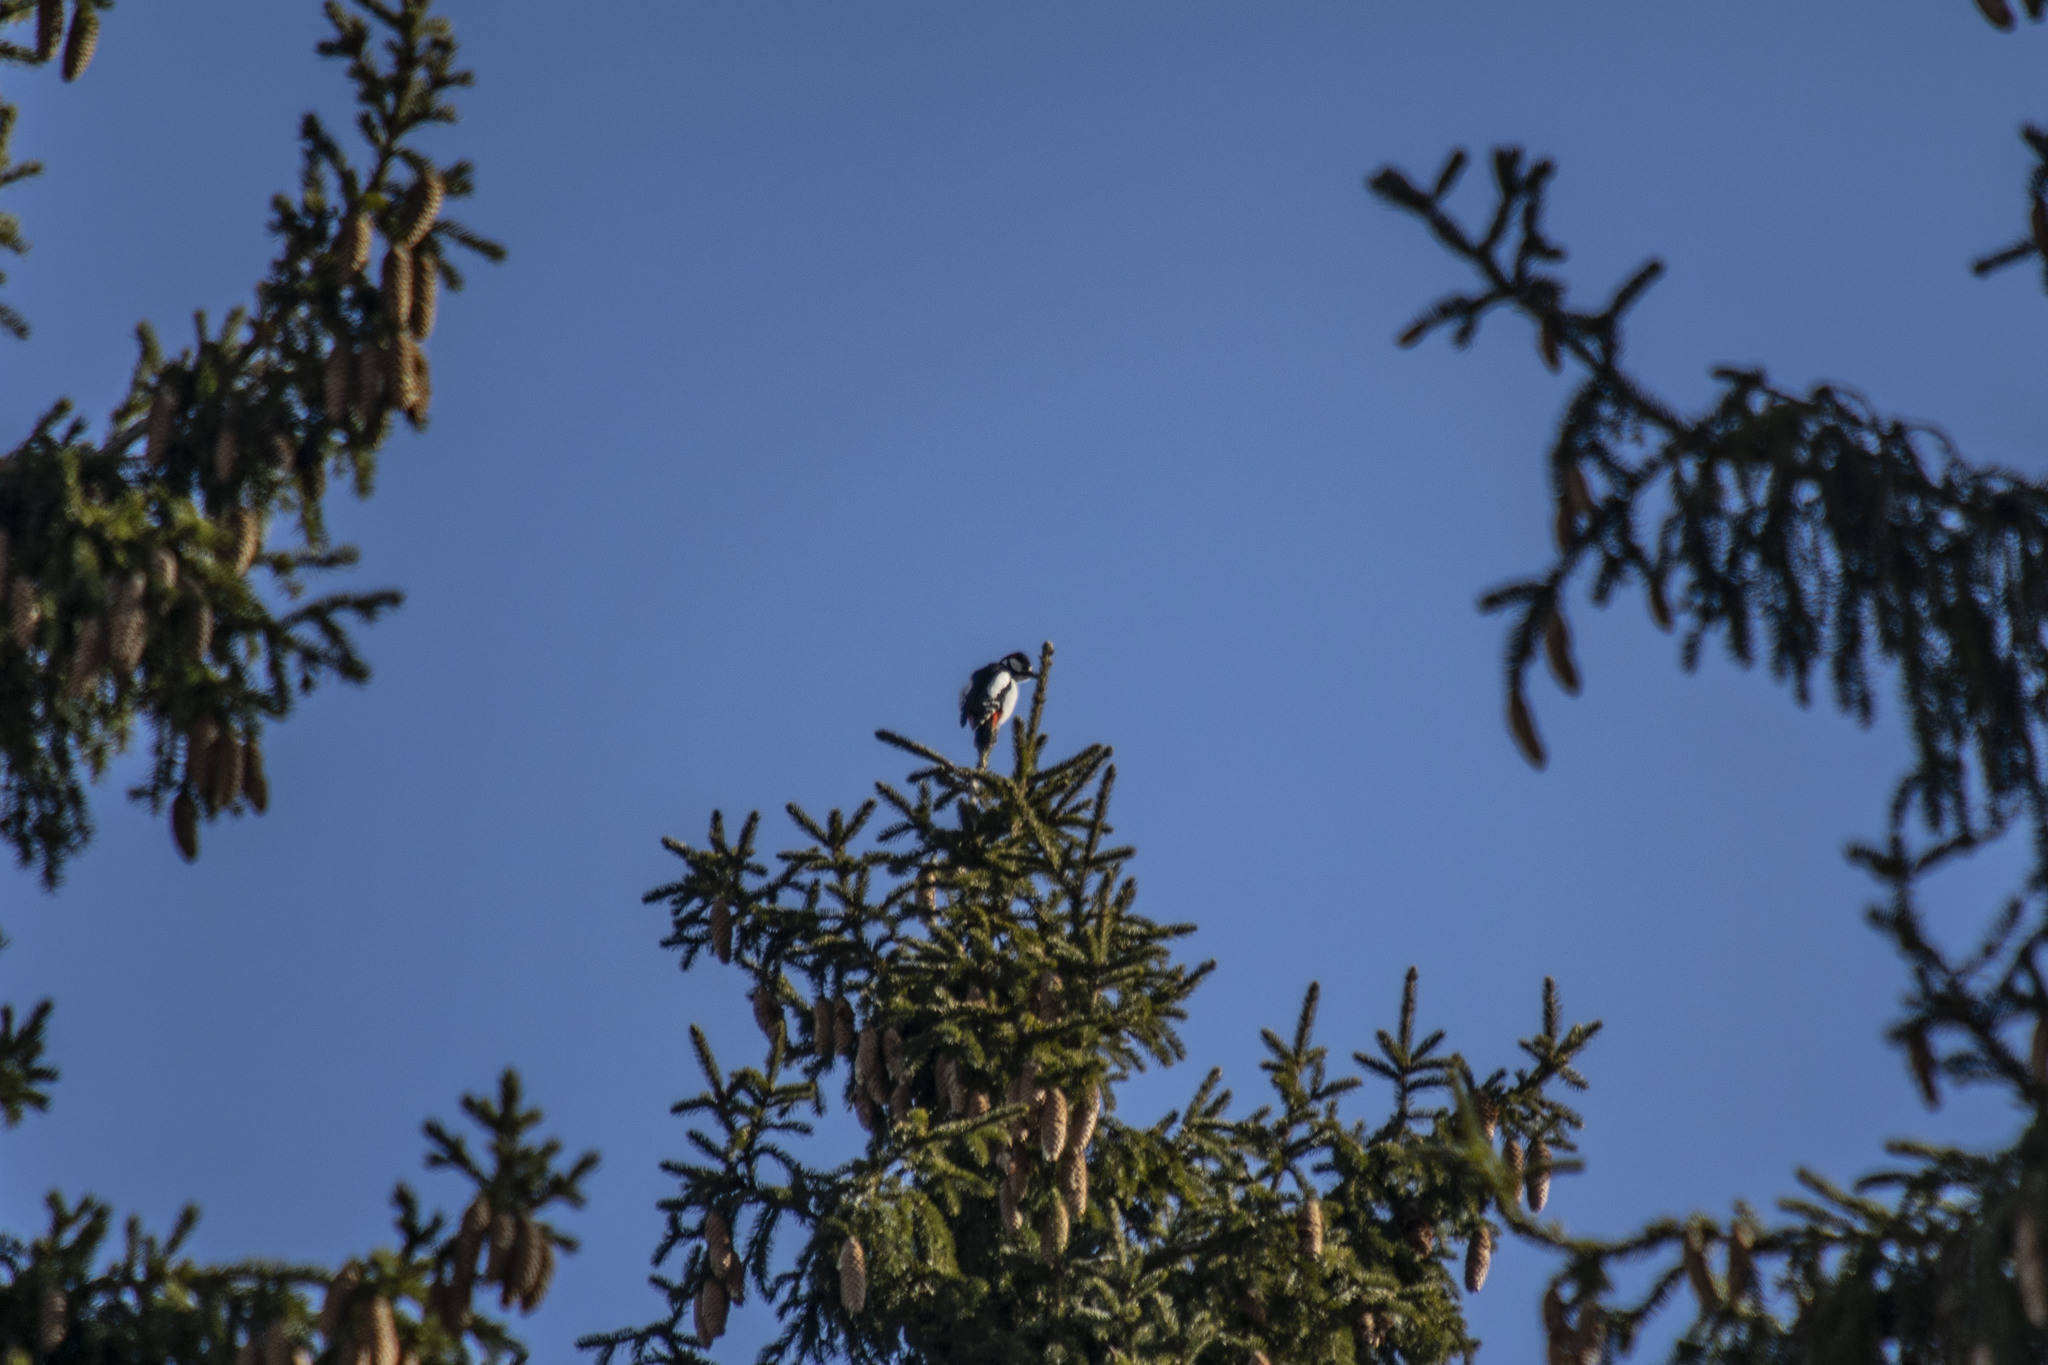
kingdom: Animalia
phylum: Chordata
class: Aves
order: Piciformes
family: Picidae
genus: Dendrocopos
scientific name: Dendrocopos major
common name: Great spotted woodpecker
